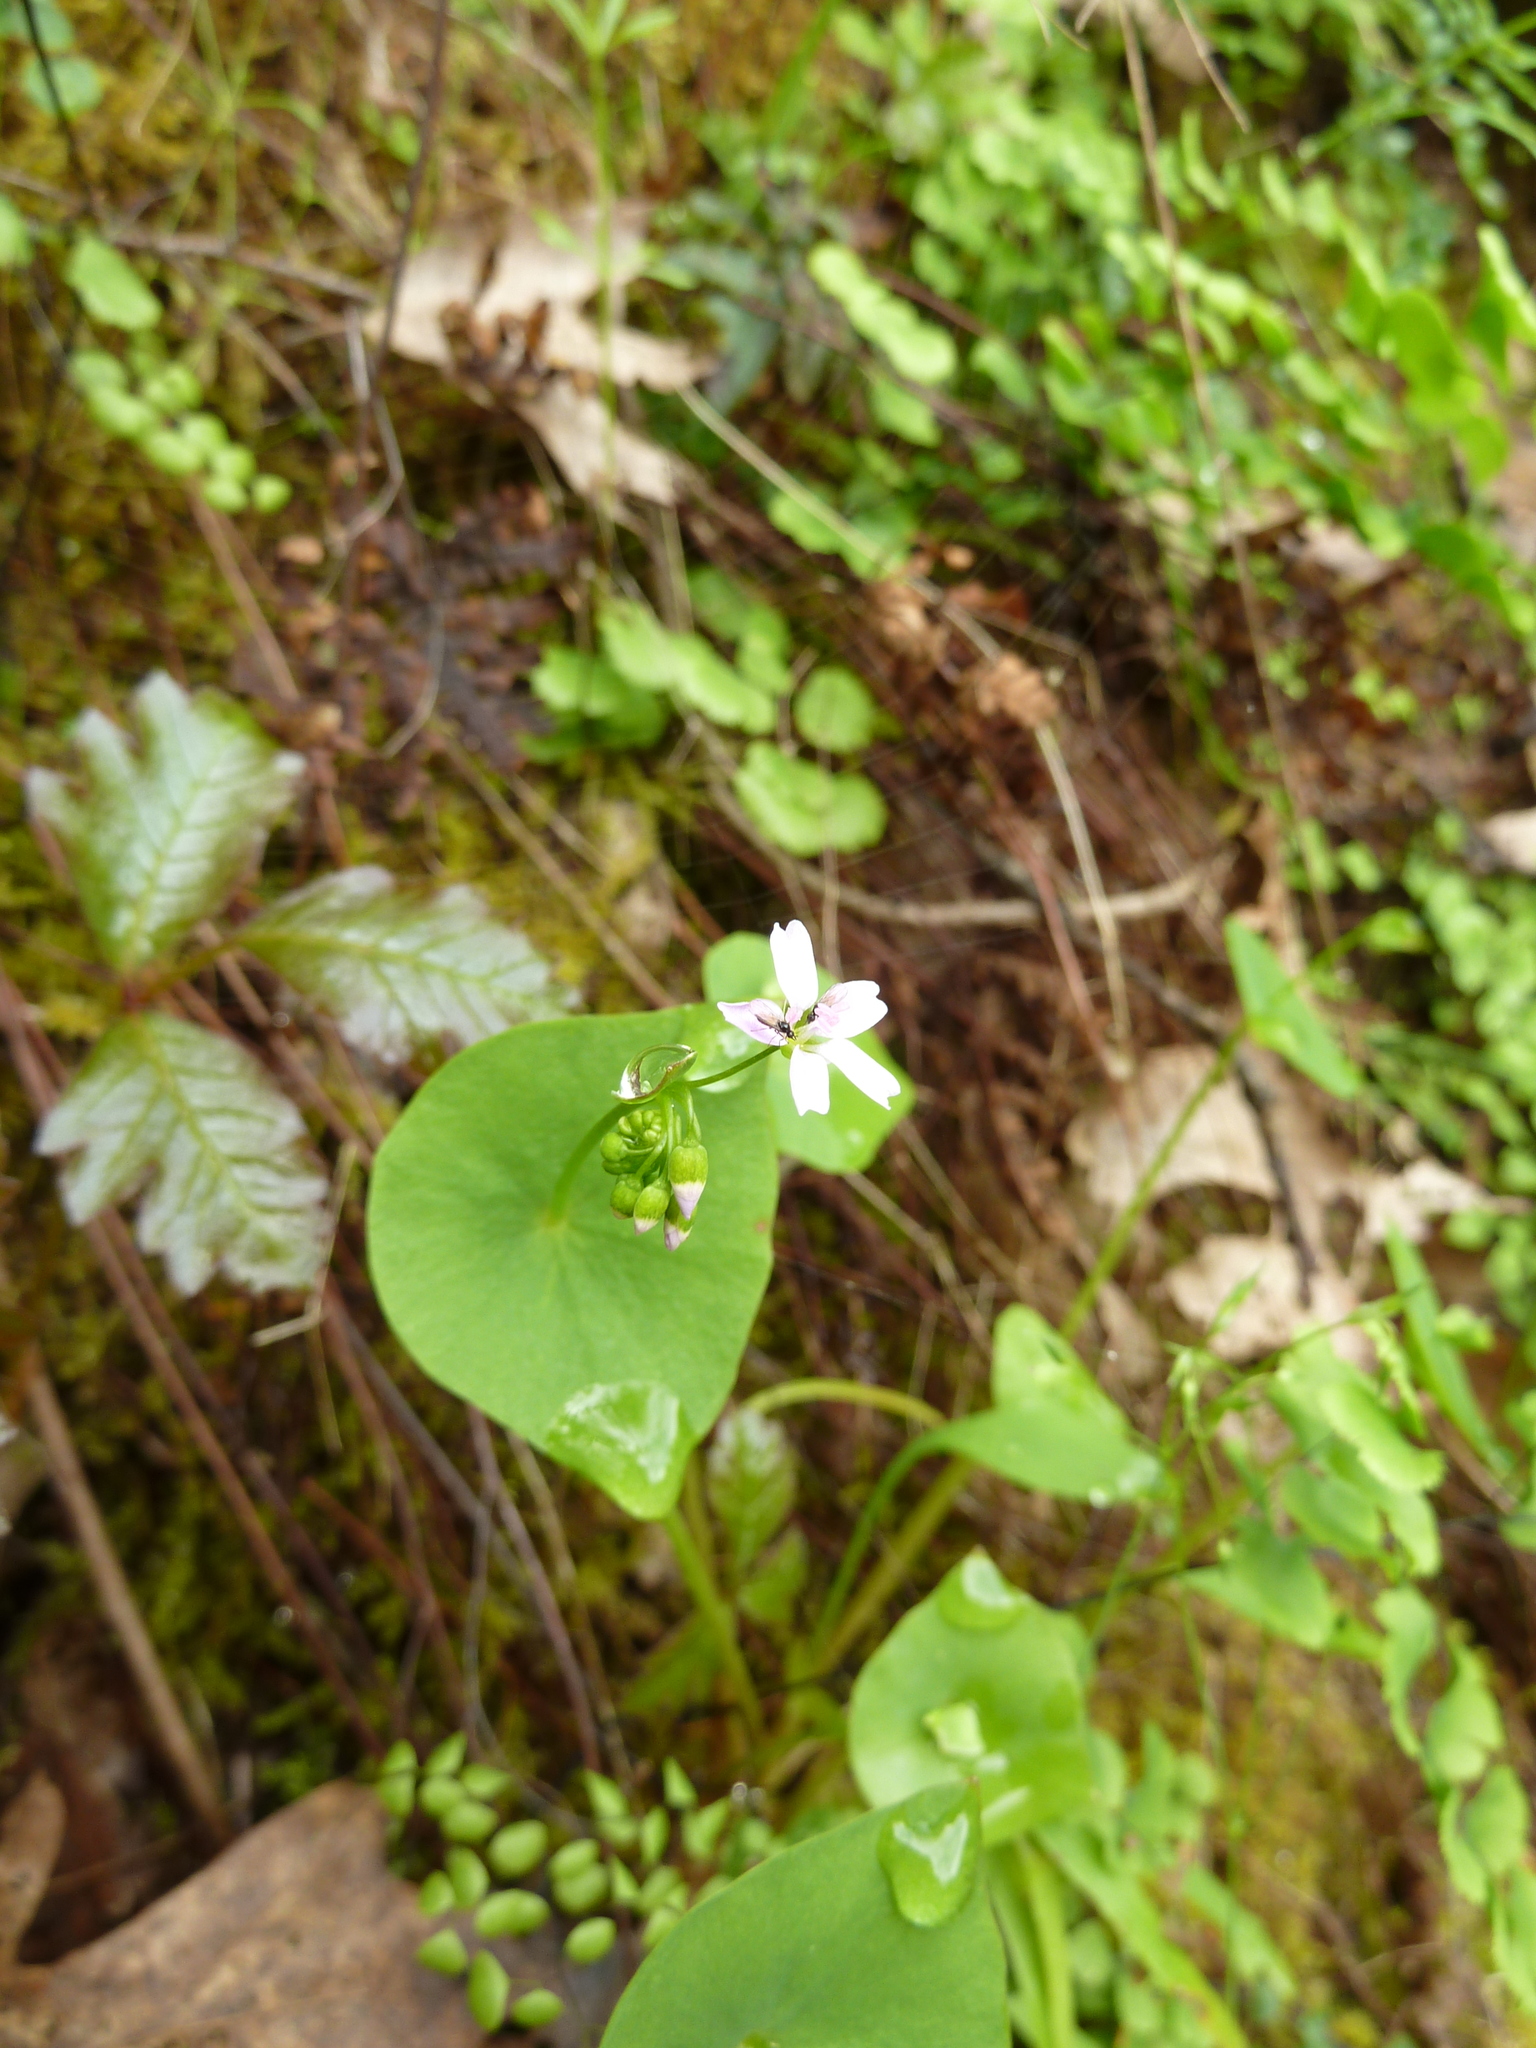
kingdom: Plantae
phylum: Tracheophyta
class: Magnoliopsida
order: Caryophyllales
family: Montiaceae
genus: Claytonia
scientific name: Claytonia parviflora
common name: Indian-lettuce
